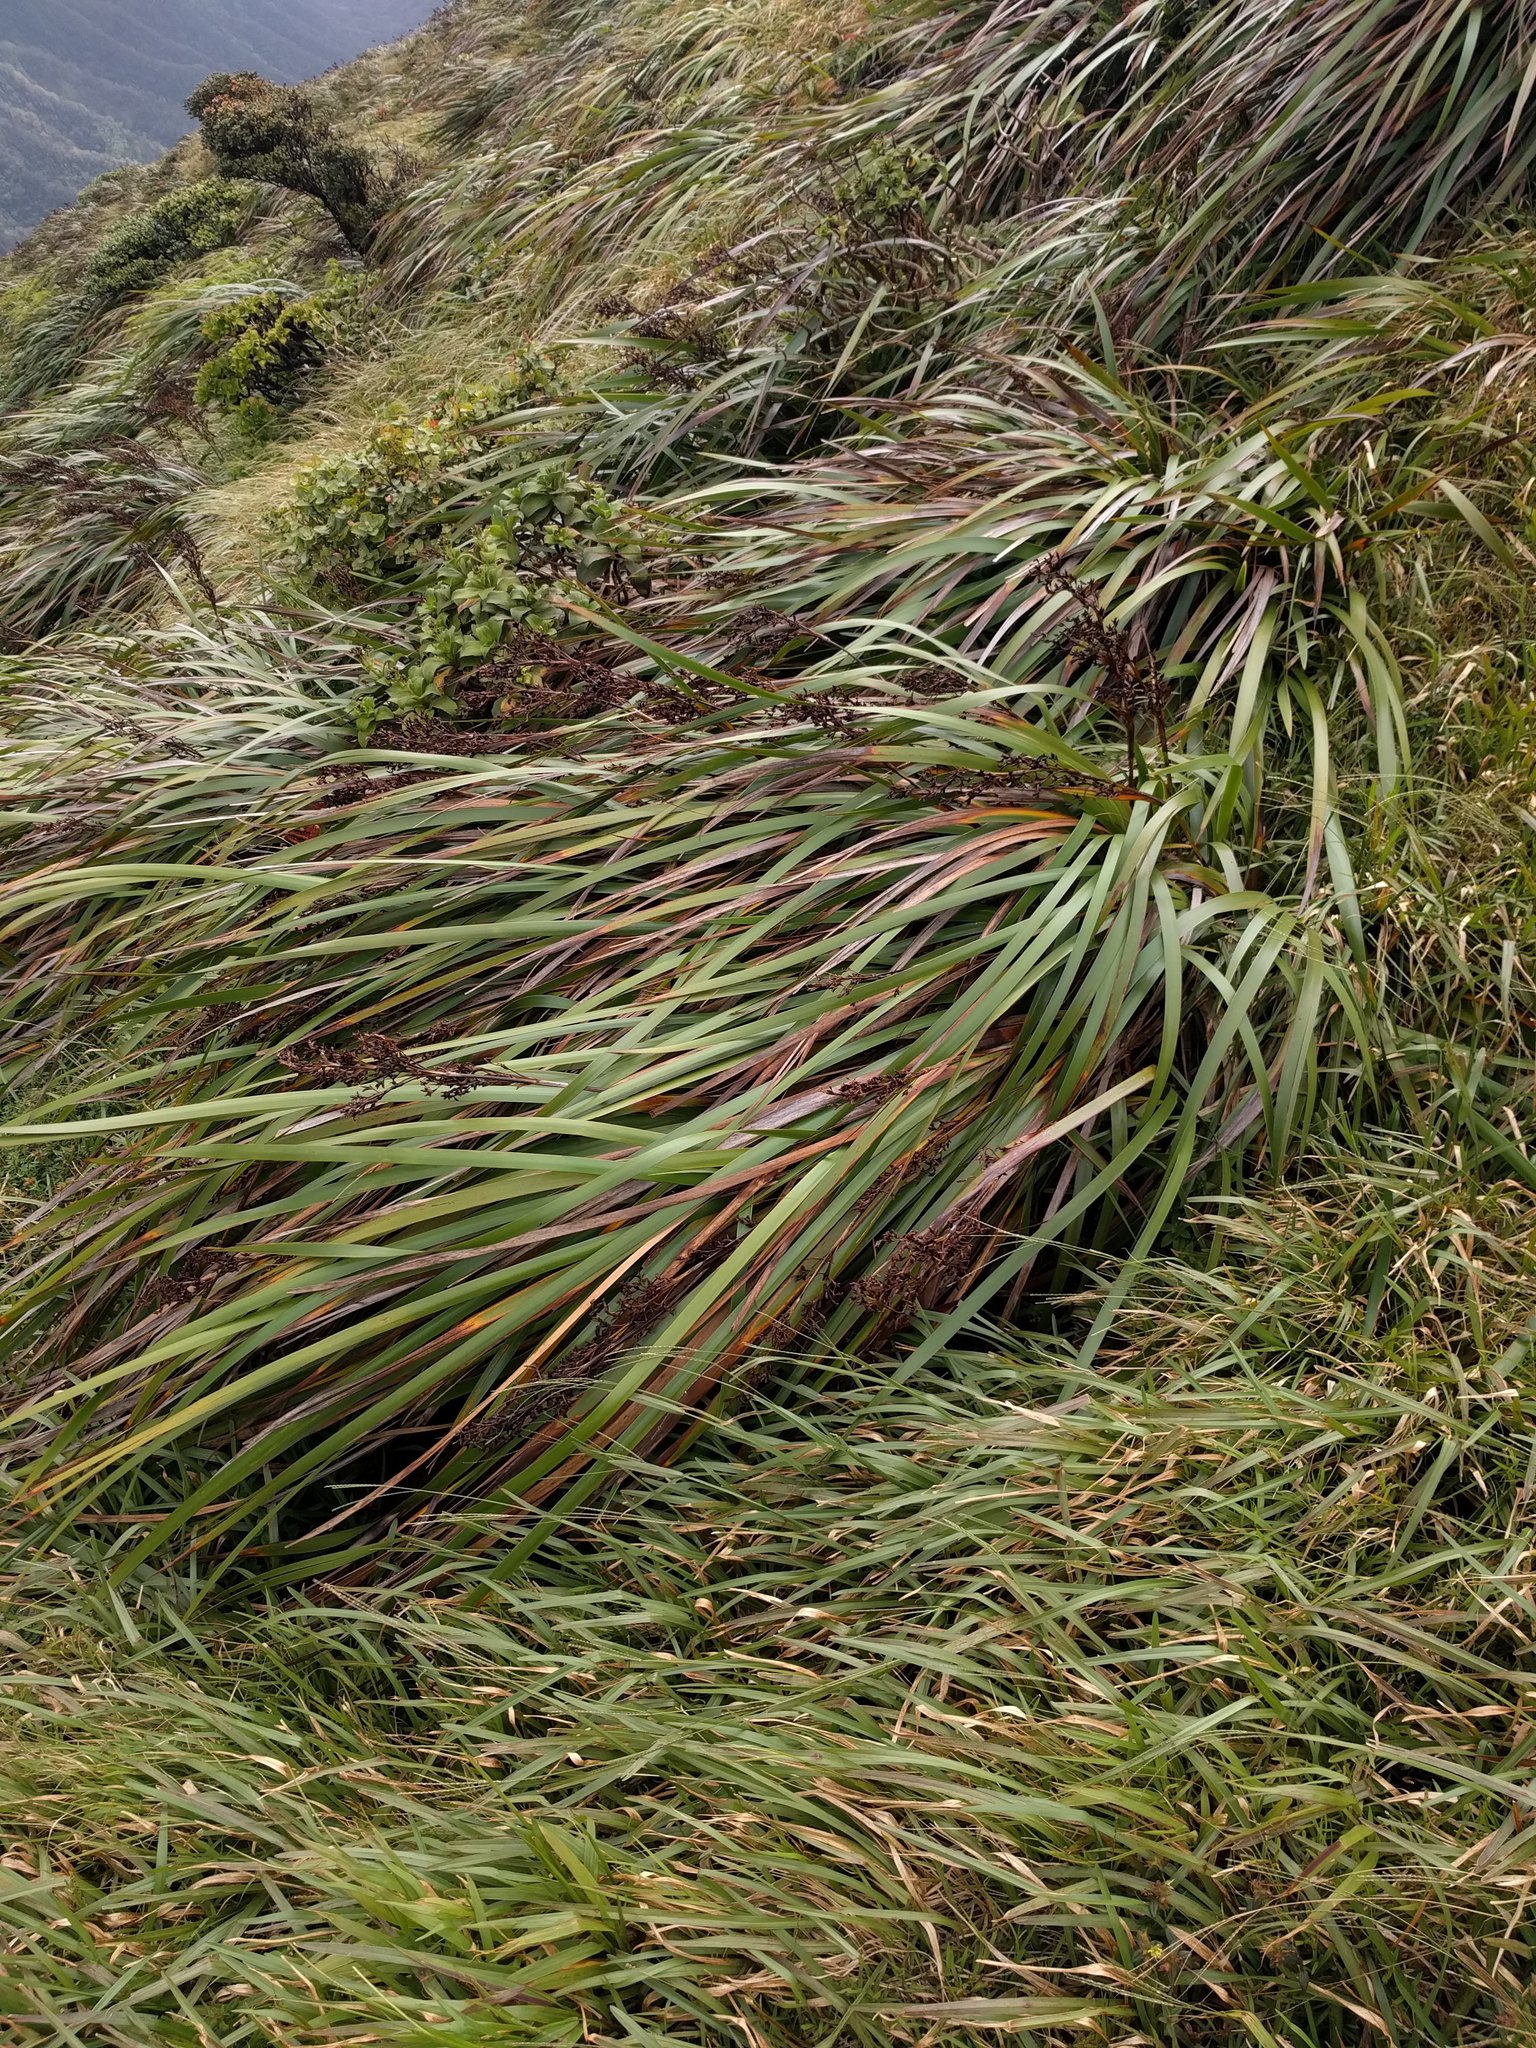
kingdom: Plantae
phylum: Tracheophyta
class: Liliopsida
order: Poales
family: Cyperaceae
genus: Machaerina
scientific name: Machaerina angustifolia
